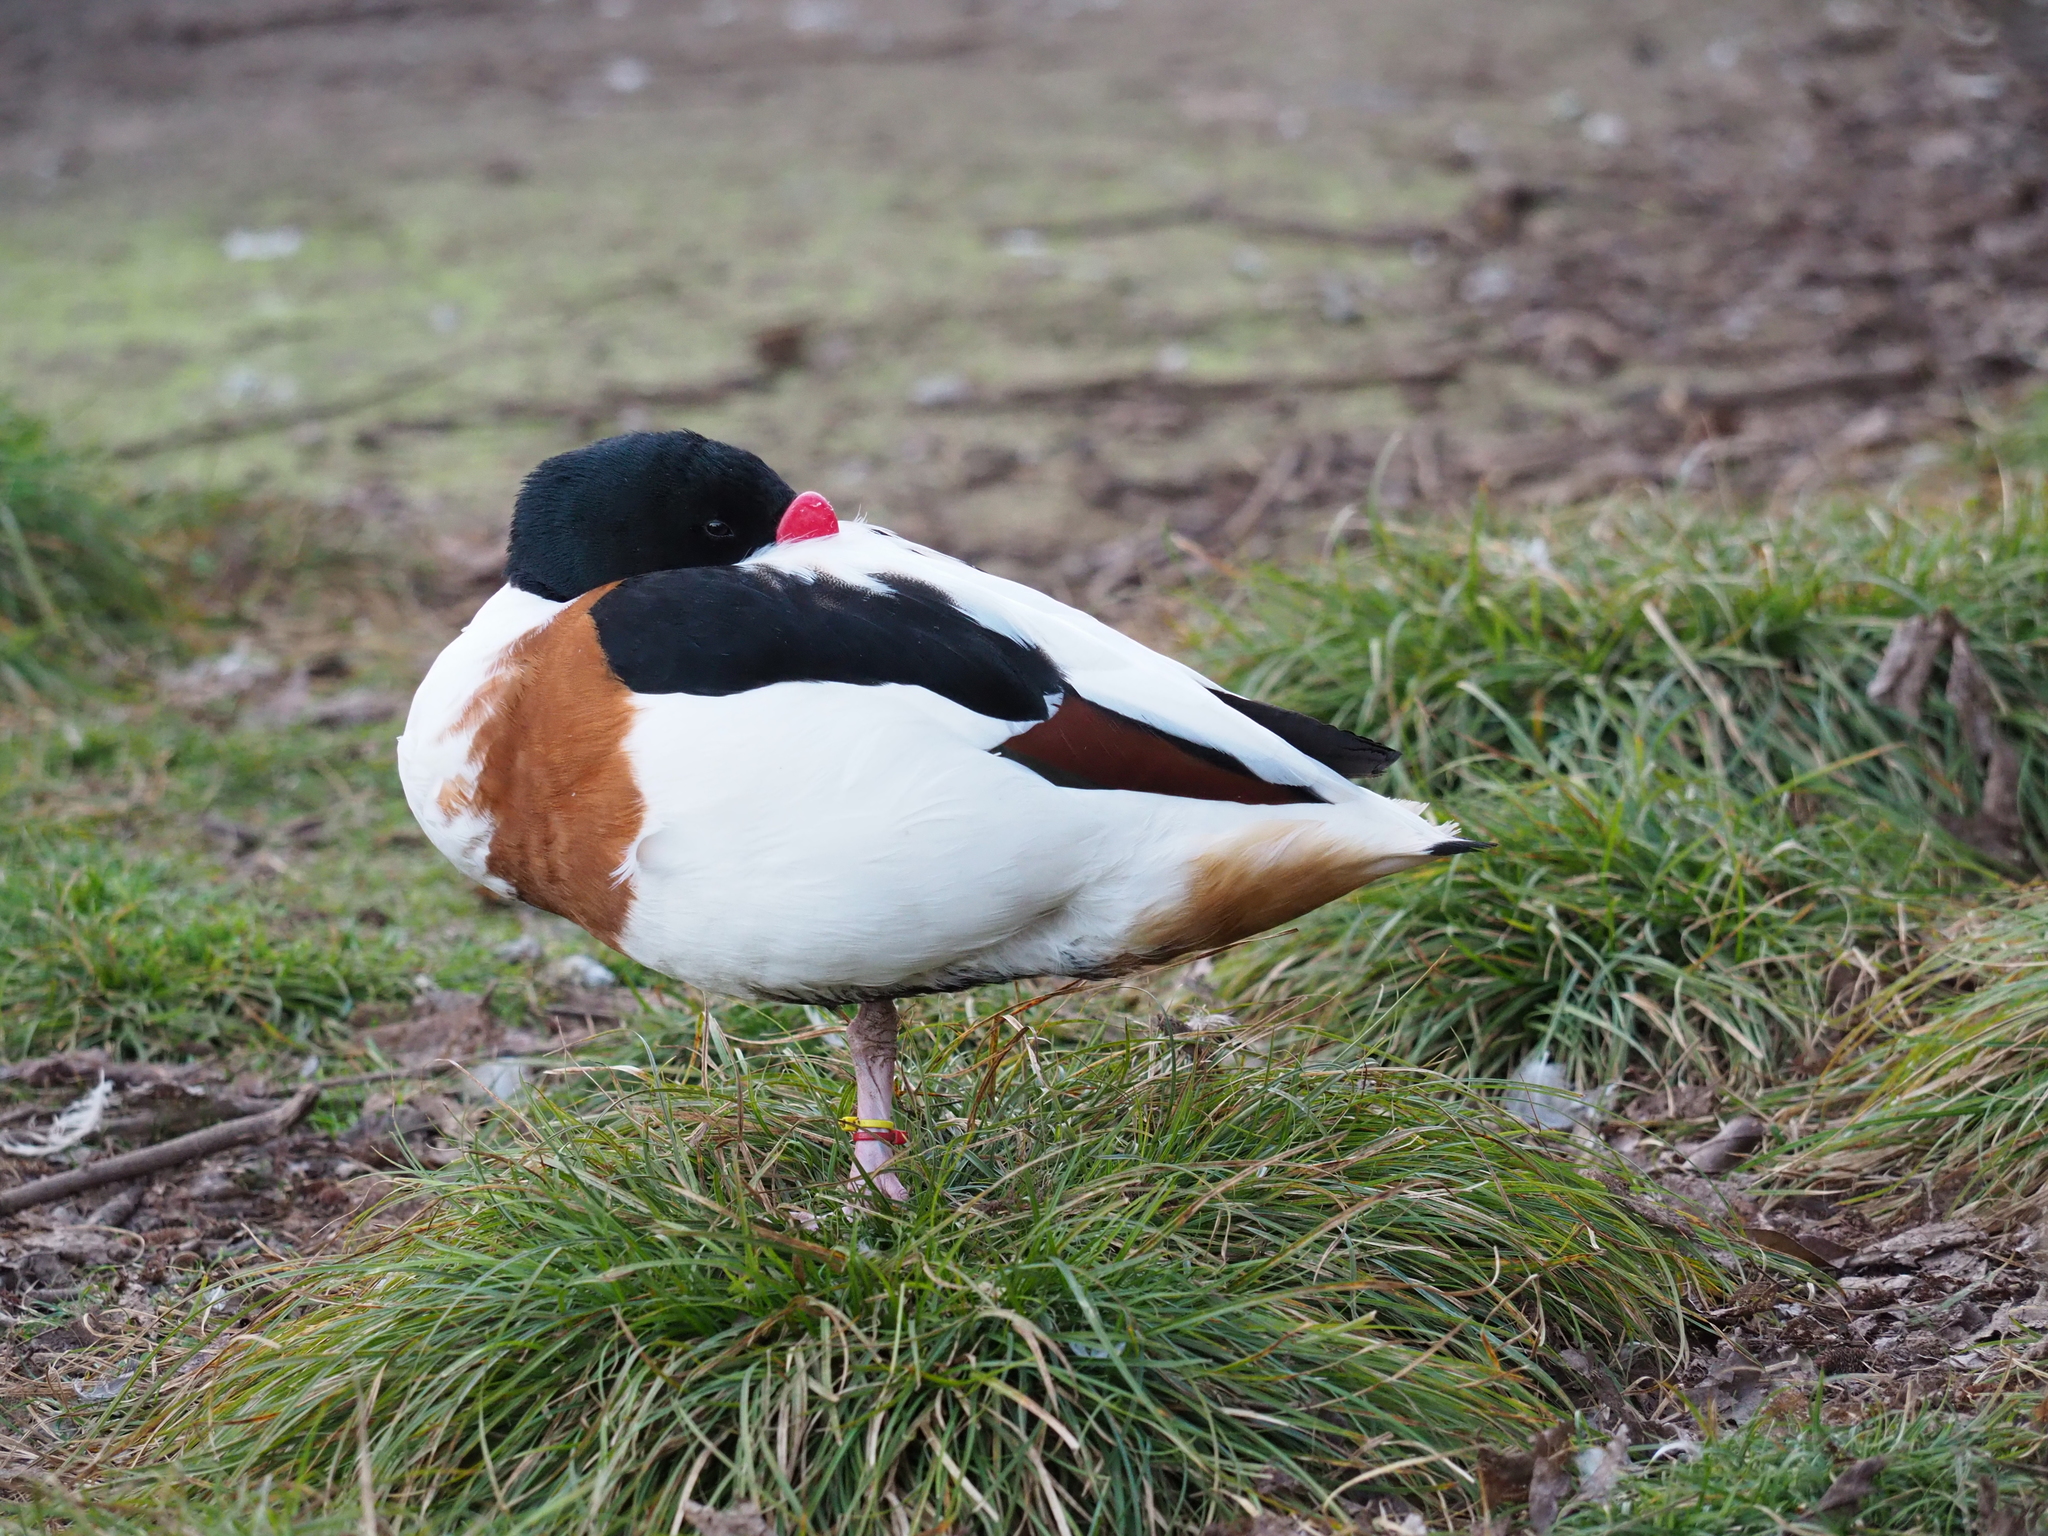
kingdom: Animalia
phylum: Chordata
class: Aves
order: Anseriformes
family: Anatidae
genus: Tadorna
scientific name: Tadorna tadorna
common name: Common shelduck
